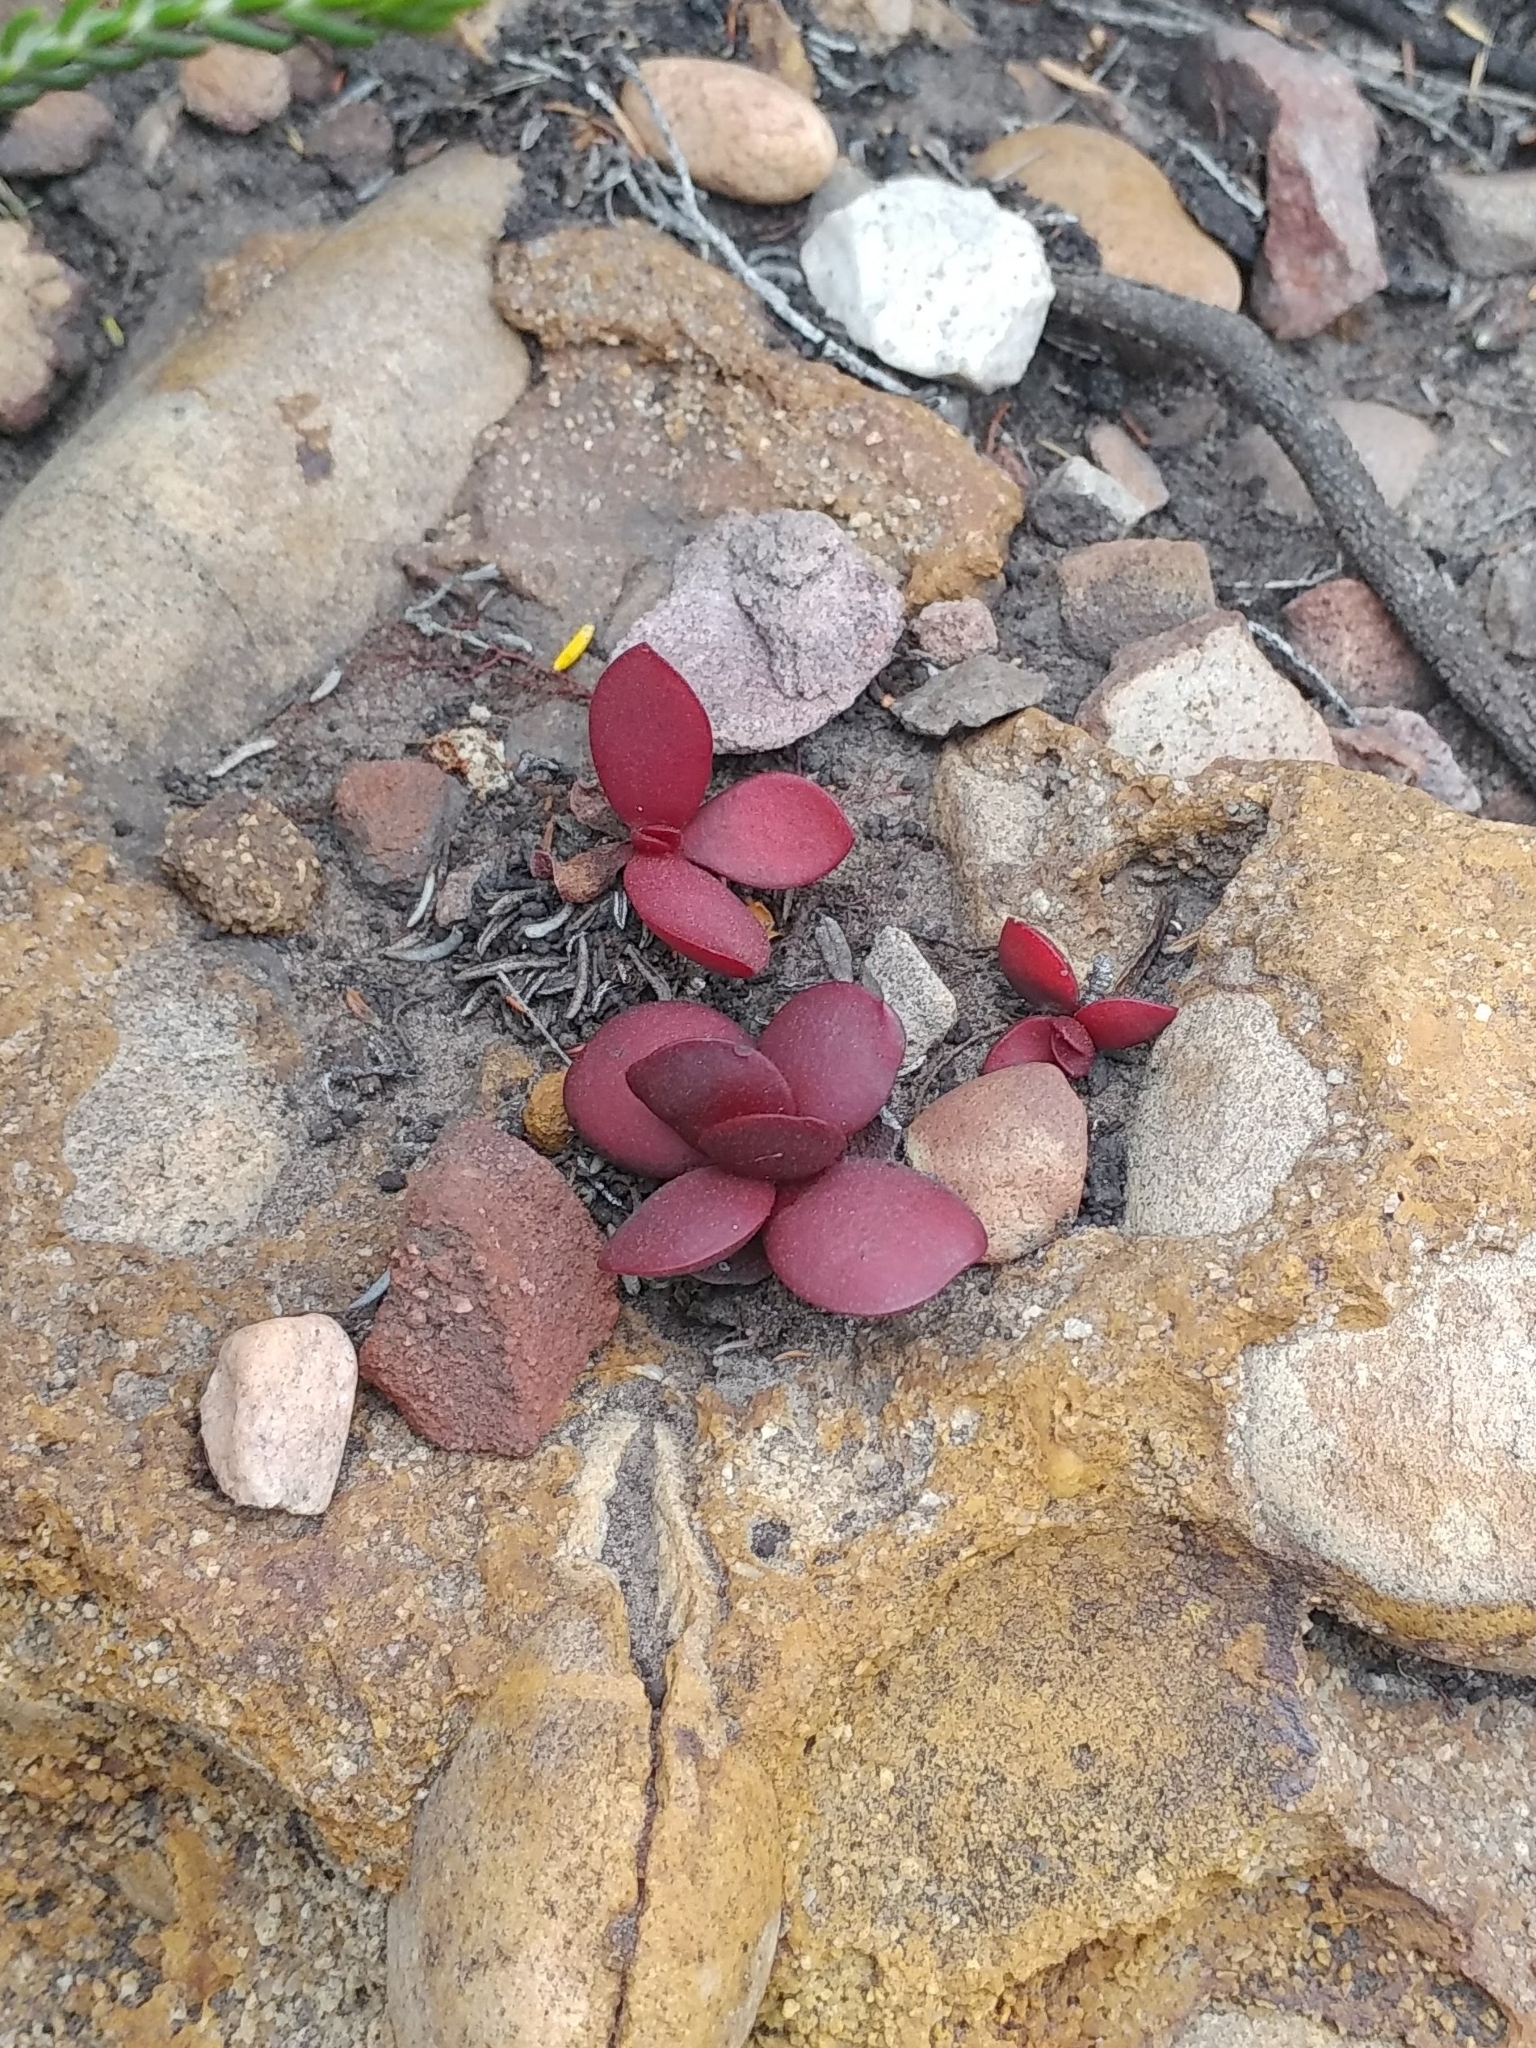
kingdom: Plantae
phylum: Tracheophyta
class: Magnoliopsida
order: Saxifragales
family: Crassulaceae
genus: Crassula
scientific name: Crassula atropurpurea
